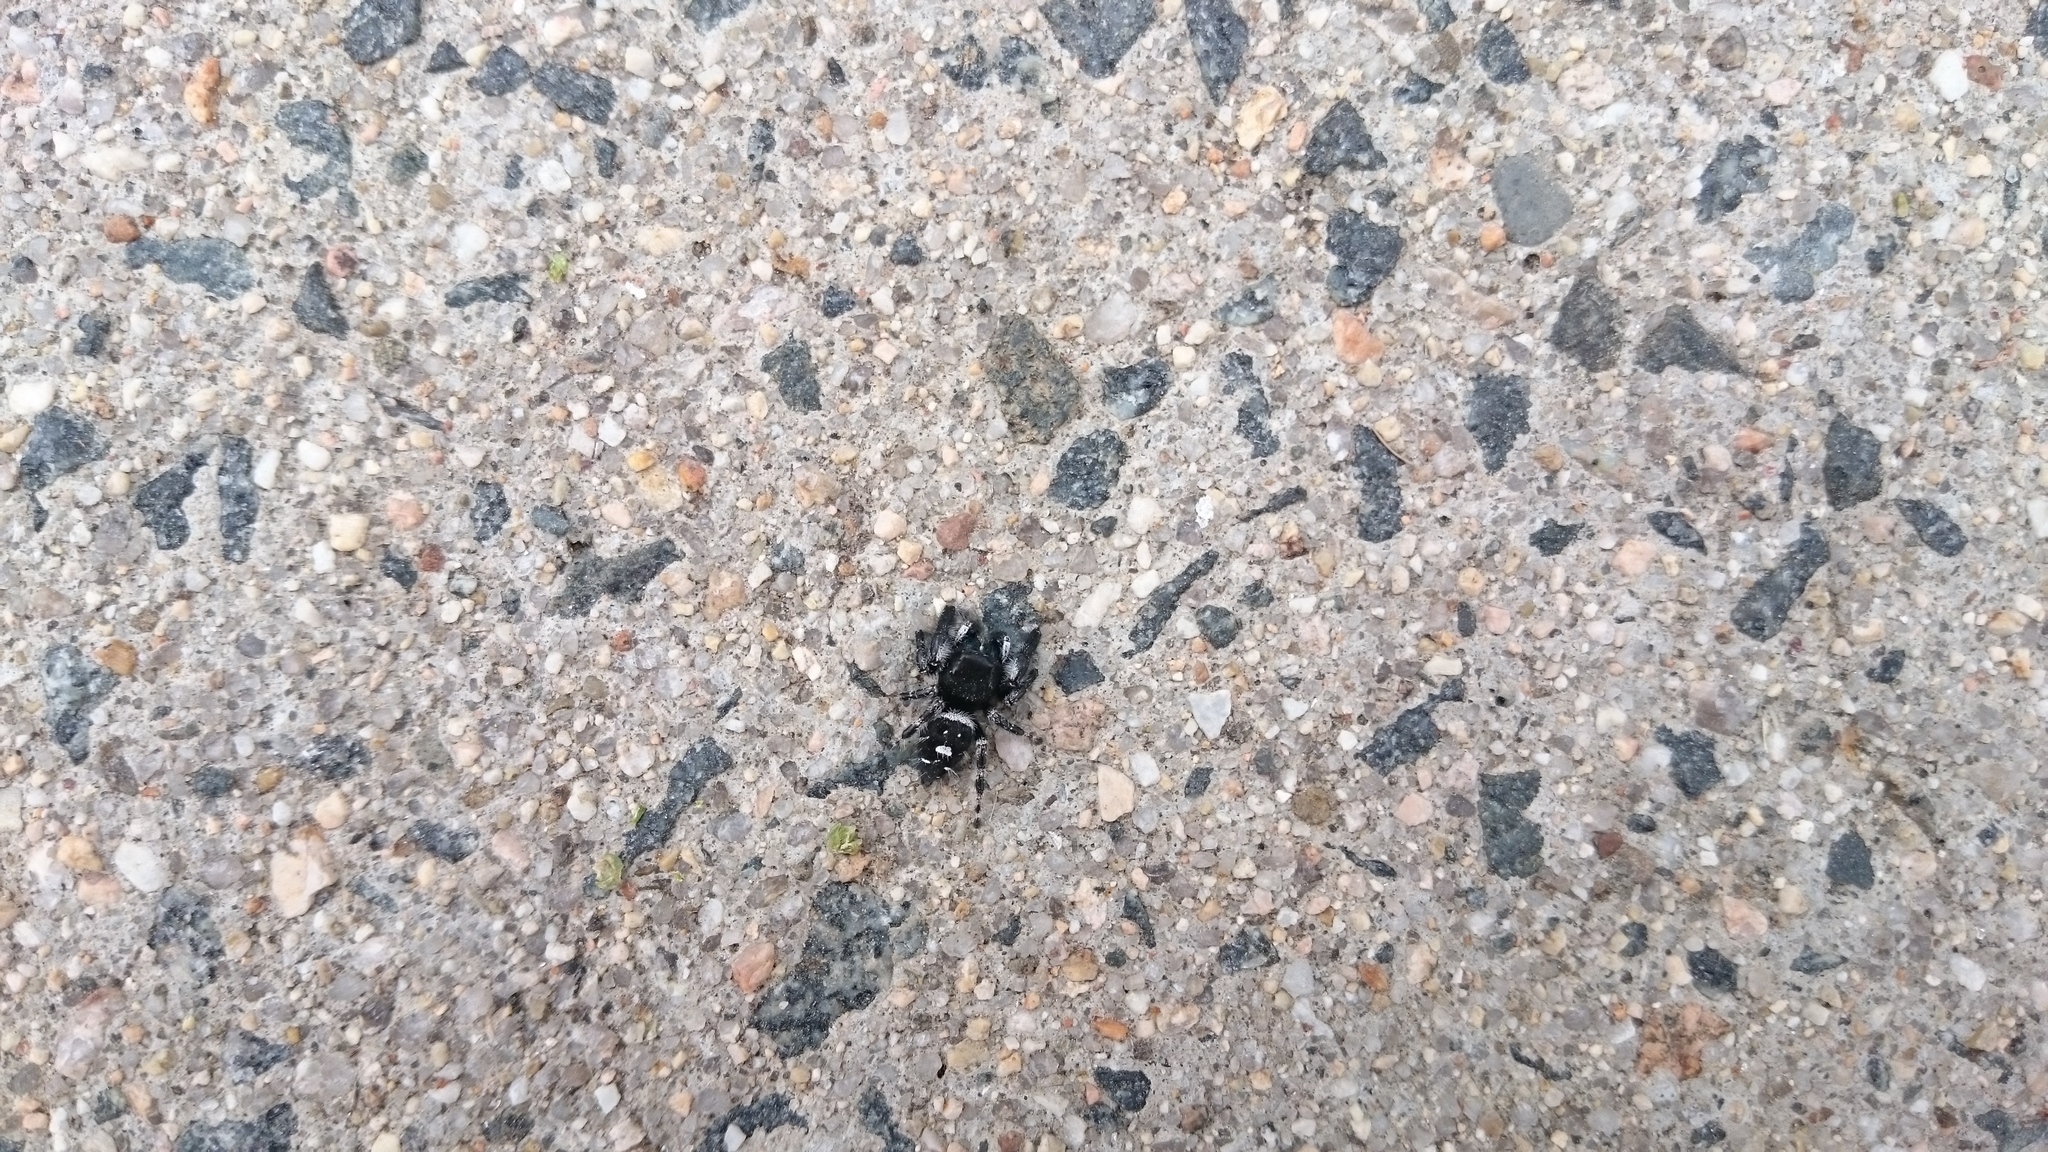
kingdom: Animalia
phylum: Arthropoda
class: Arachnida
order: Araneae
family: Salticidae
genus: Phidippus
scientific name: Phidippus audax
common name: Bold jumper
